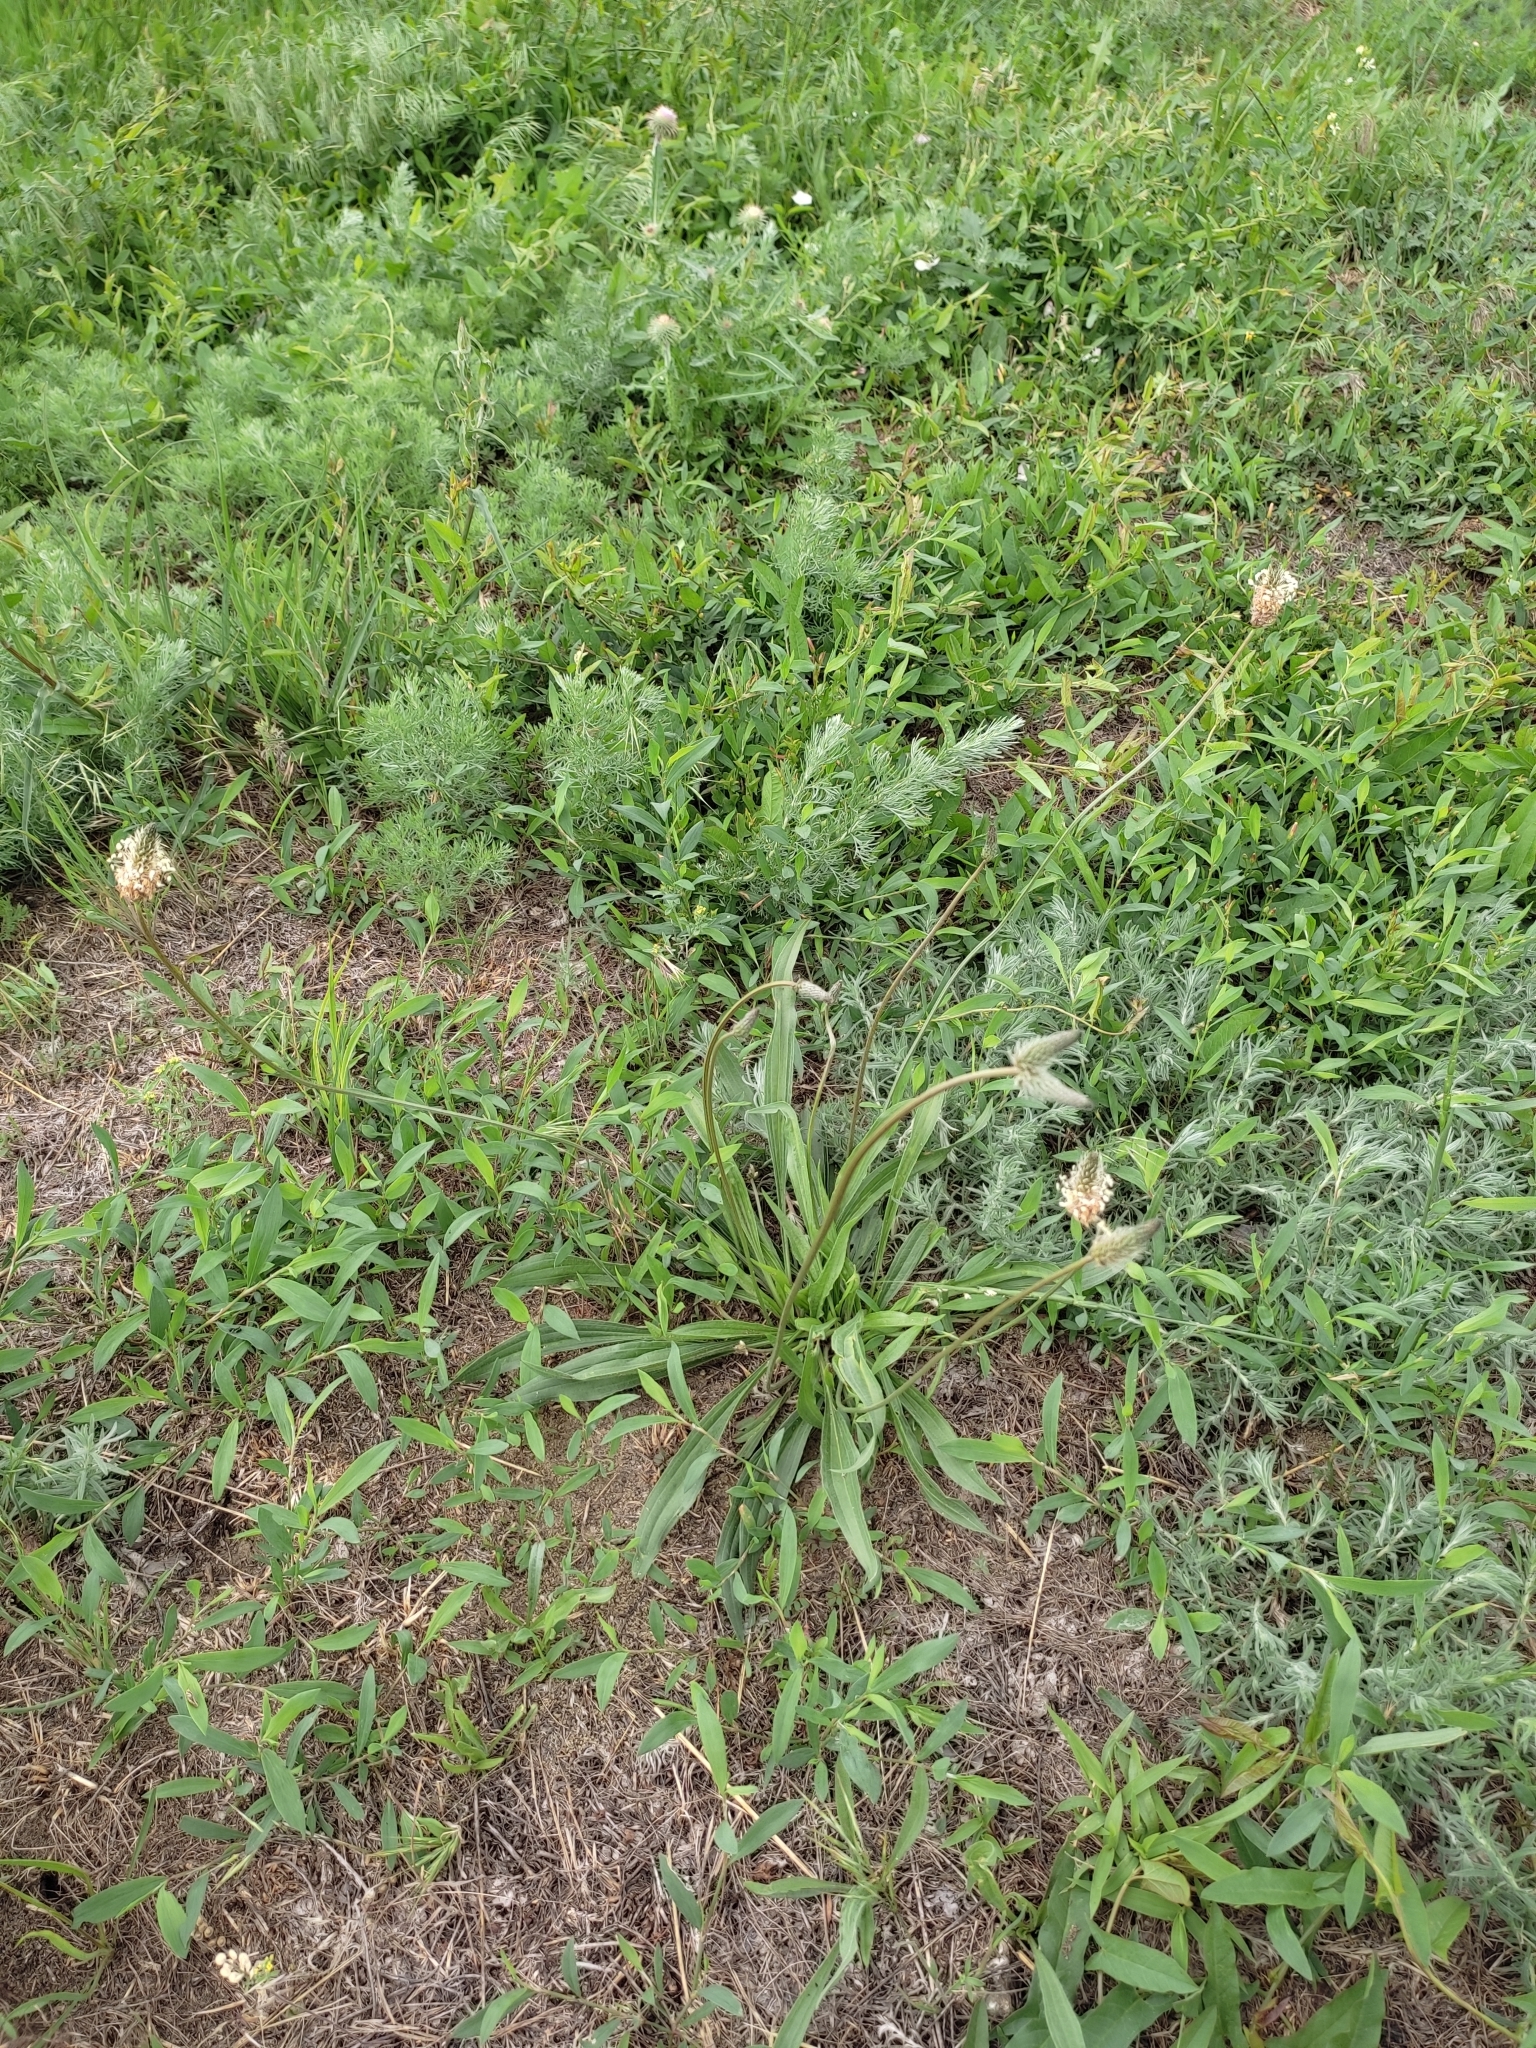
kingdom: Plantae
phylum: Tracheophyta
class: Magnoliopsida
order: Lamiales
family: Plantaginaceae
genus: Plantago
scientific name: Plantago lanceolata
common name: Ribwort plantain
